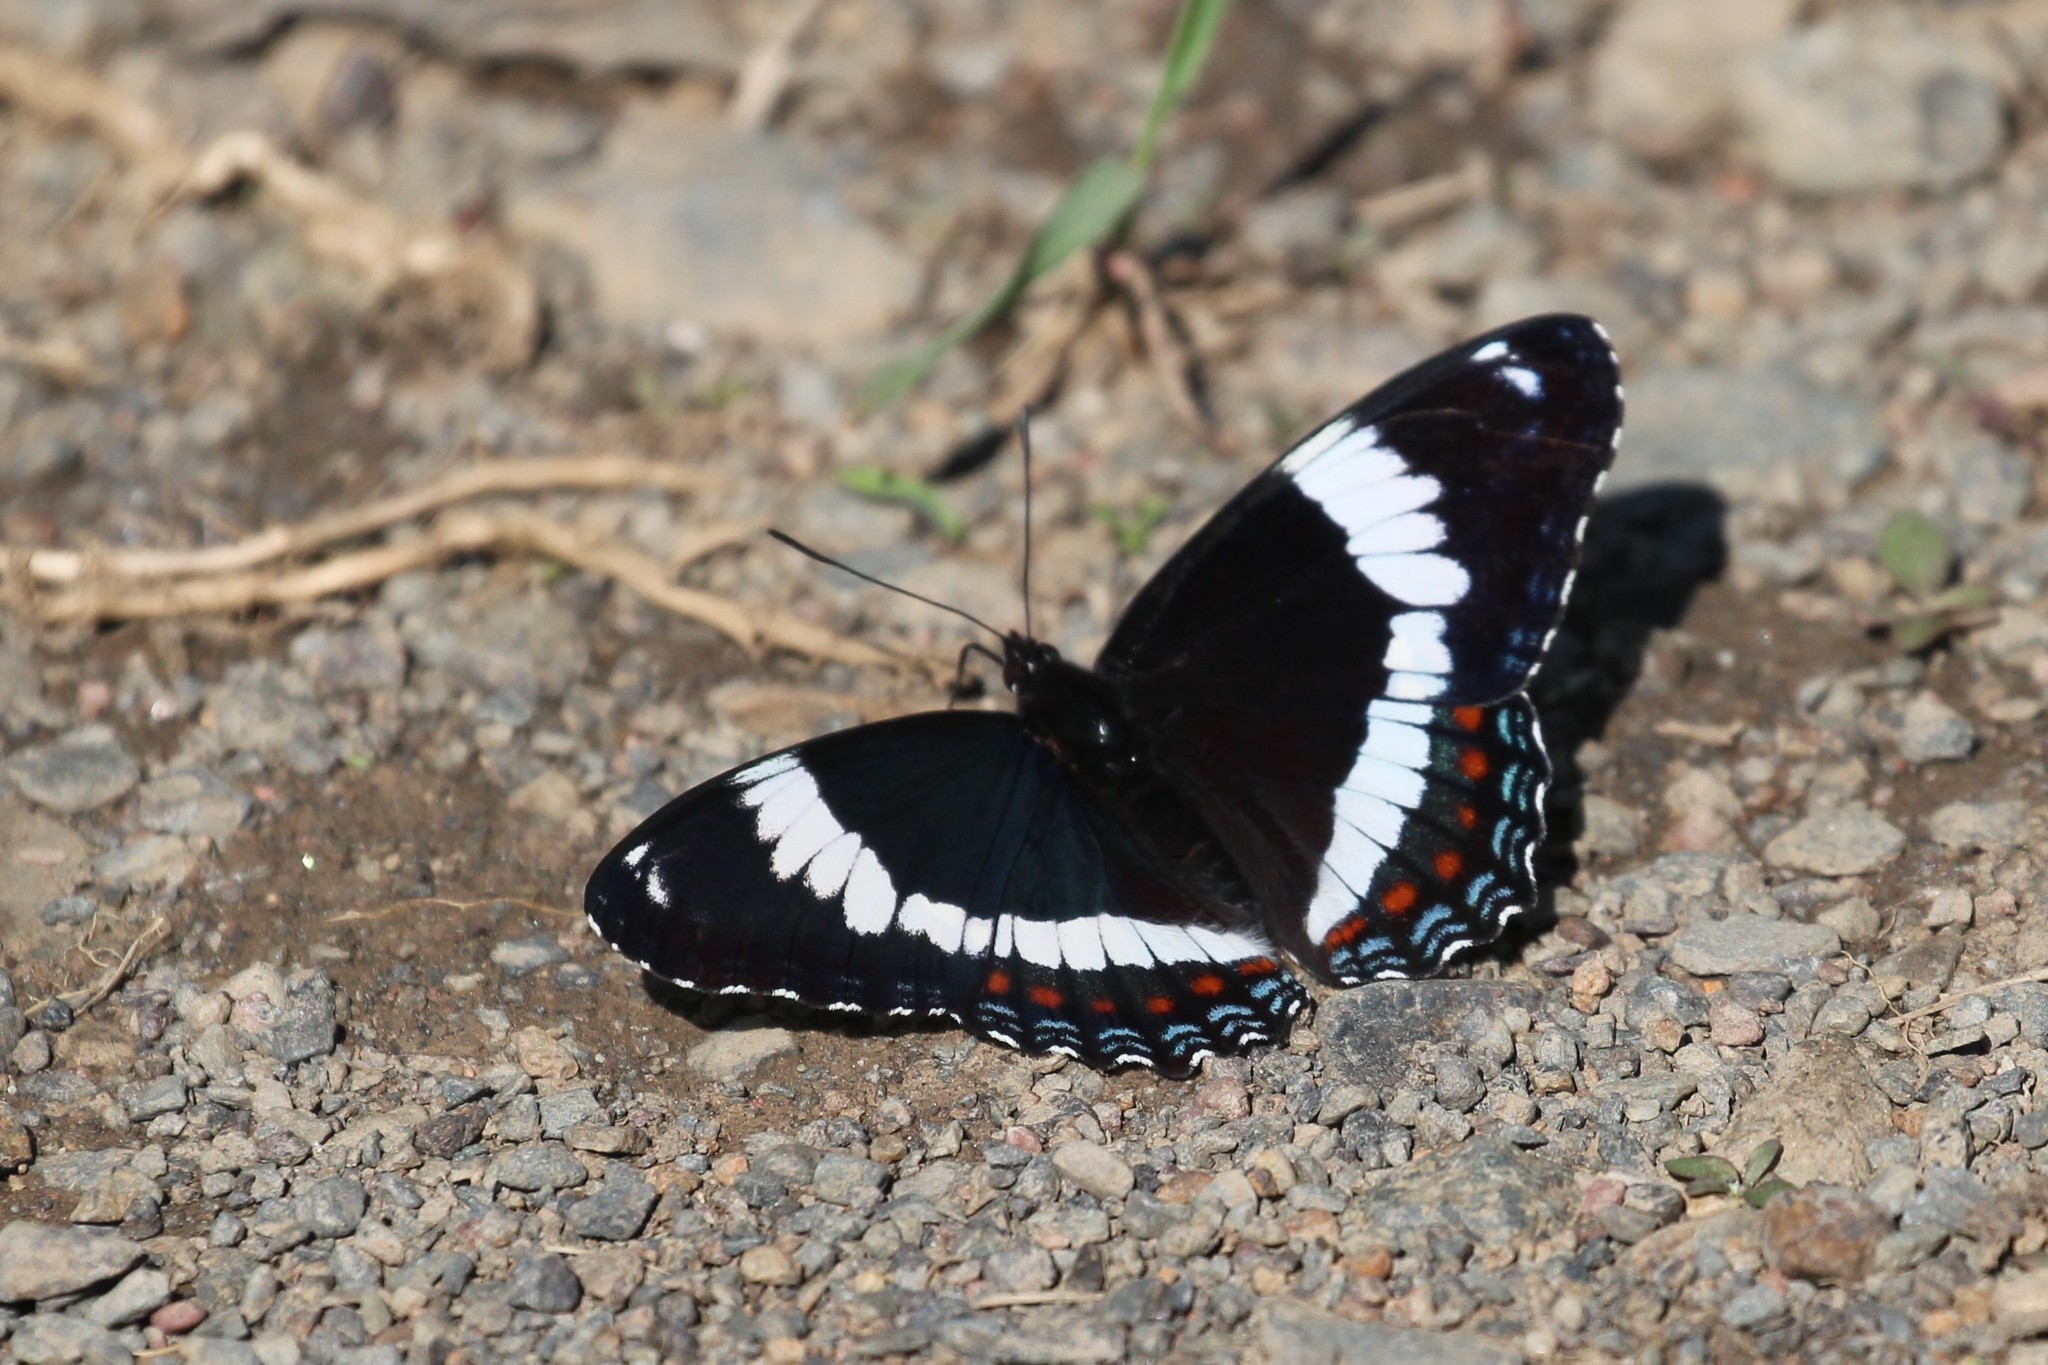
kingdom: Animalia
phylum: Arthropoda
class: Insecta
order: Lepidoptera
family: Nymphalidae
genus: Limenitis
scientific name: Limenitis arthemis
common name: Red-spotted admiral
